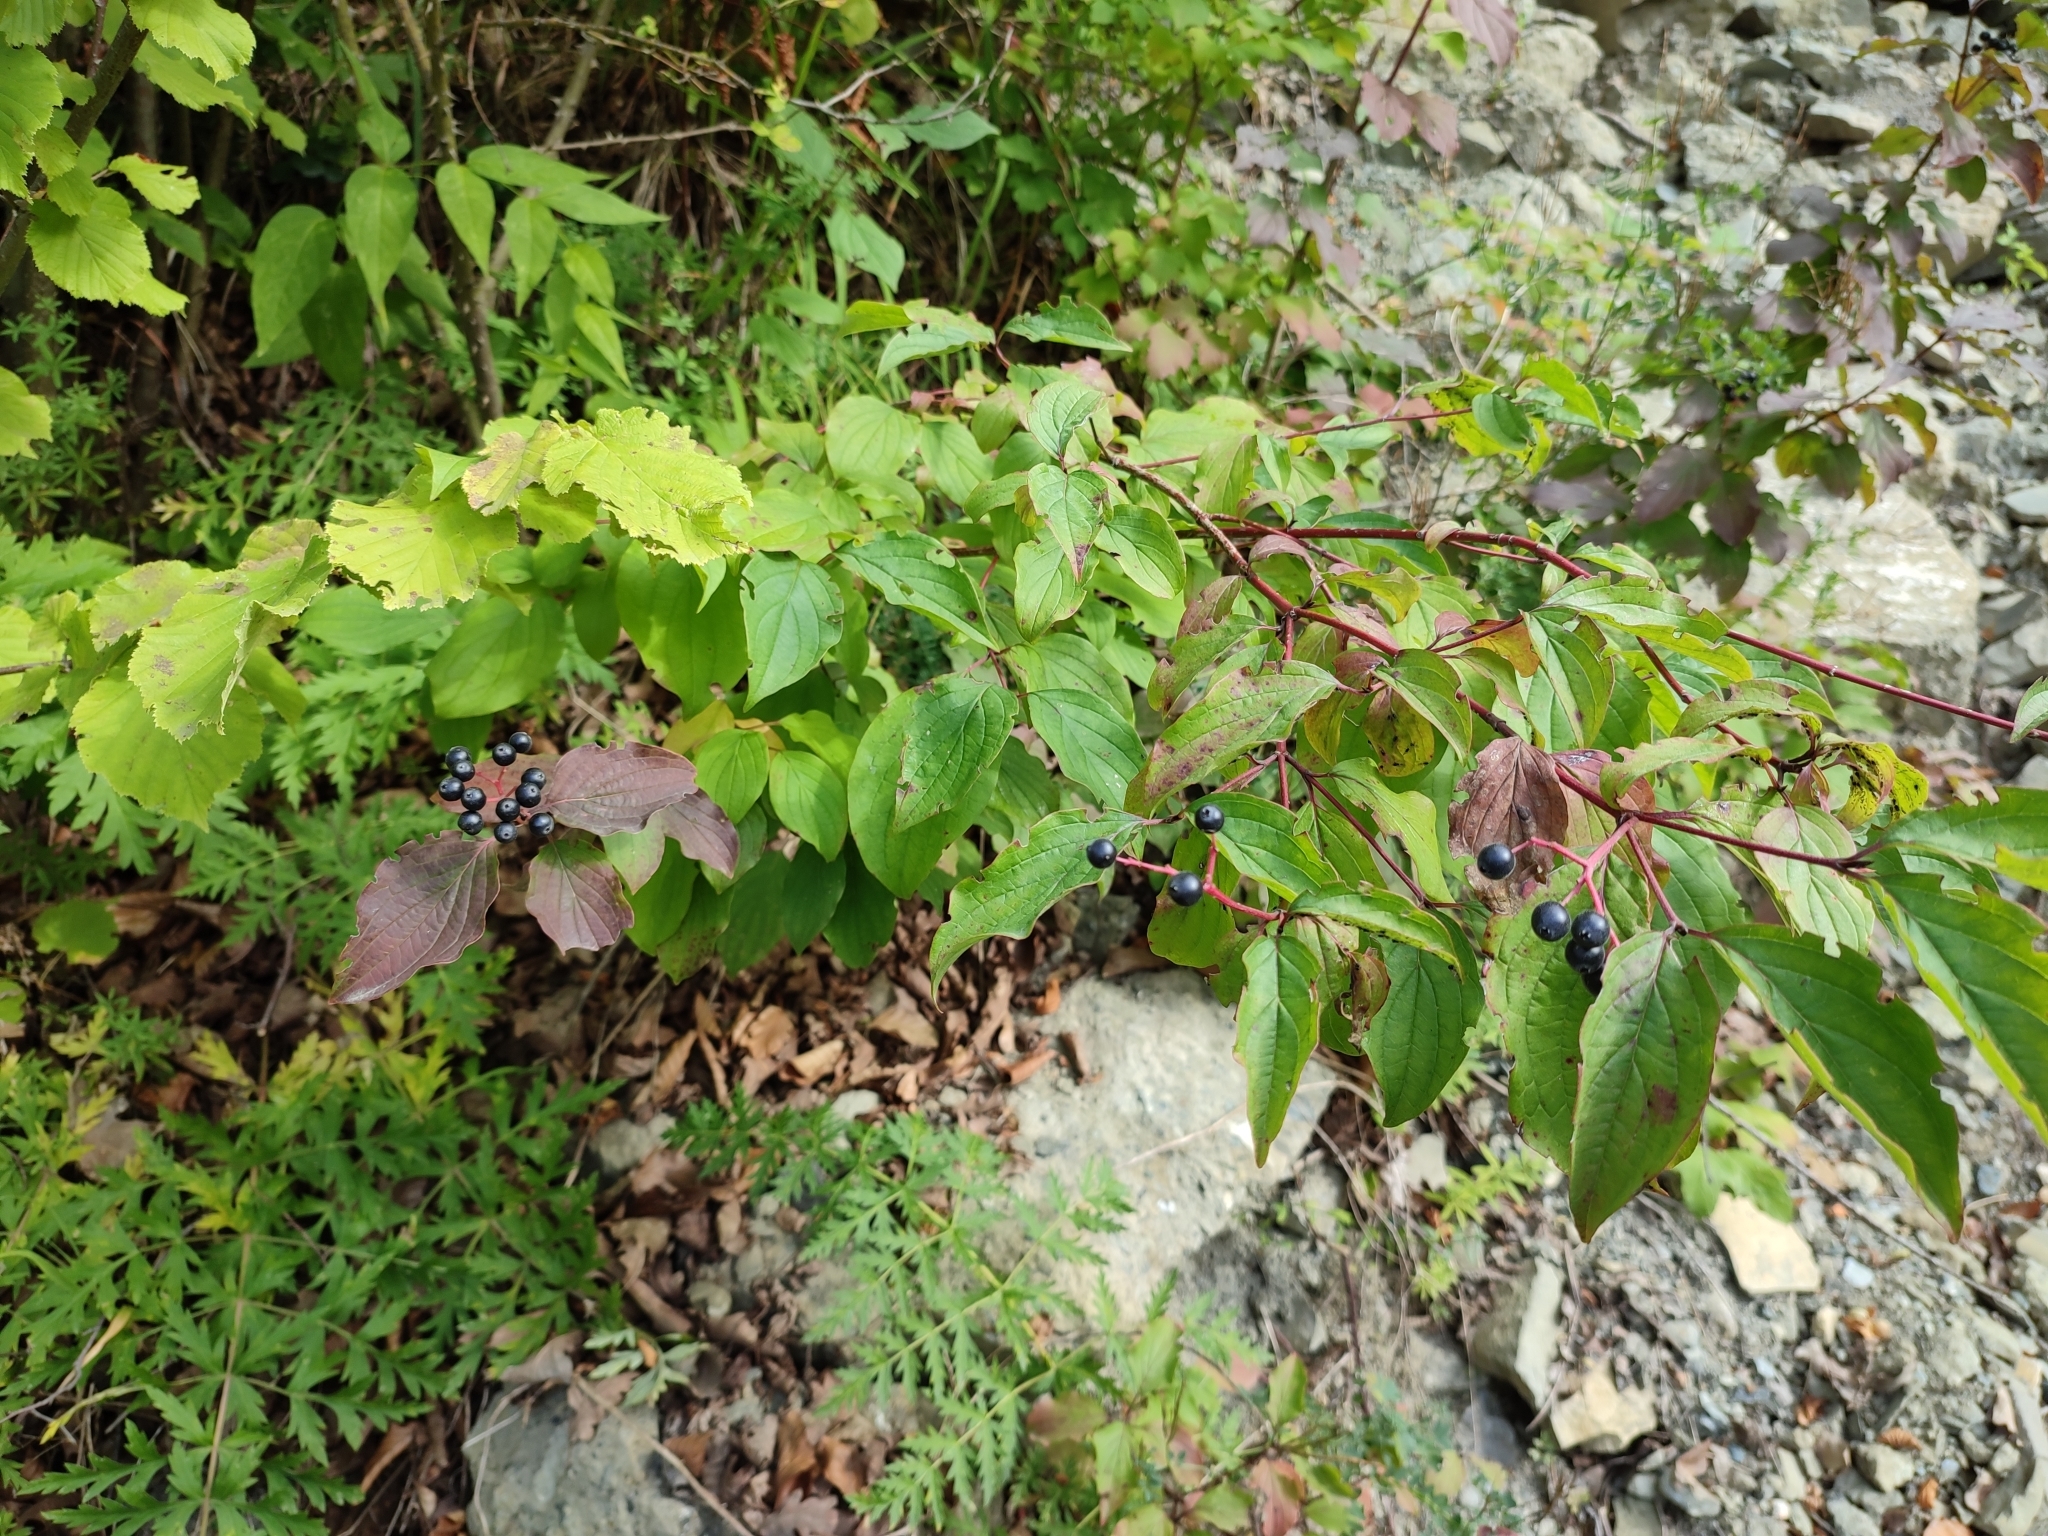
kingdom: Plantae
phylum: Tracheophyta
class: Magnoliopsida
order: Cornales
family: Cornaceae
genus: Cornus
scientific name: Cornus sanguinea
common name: Dogwood
